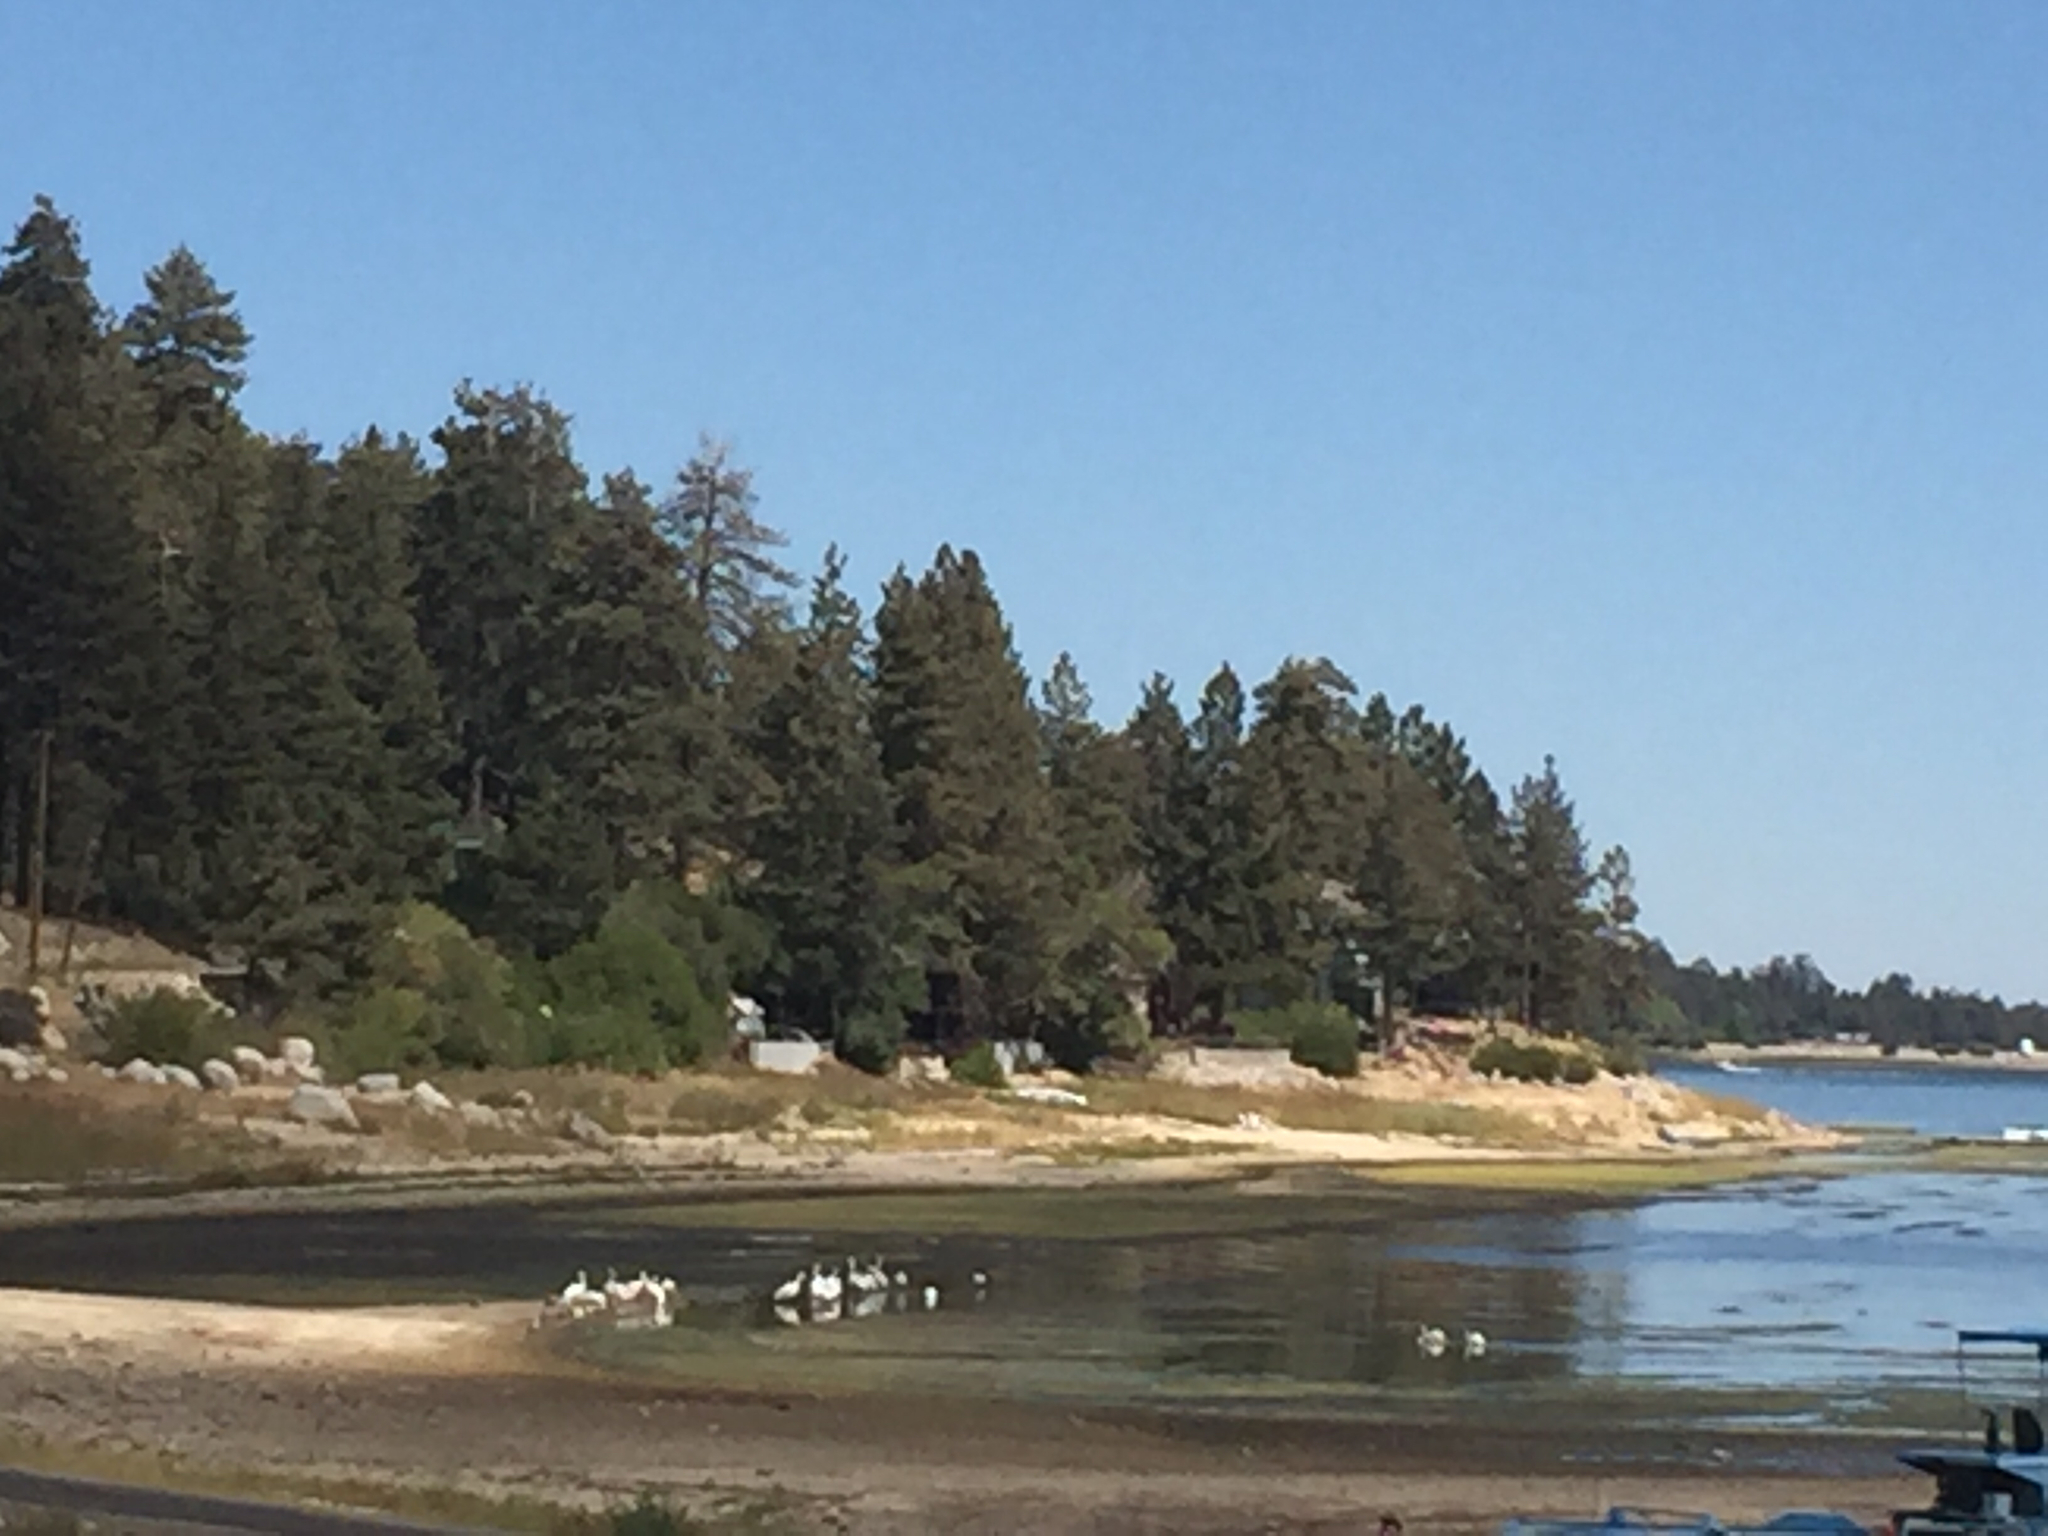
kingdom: Animalia
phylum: Chordata
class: Aves
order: Pelecaniformes
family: Pelecanidae
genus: Pelecanus
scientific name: Pelecanus erythrorhynchos
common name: American white pelican
